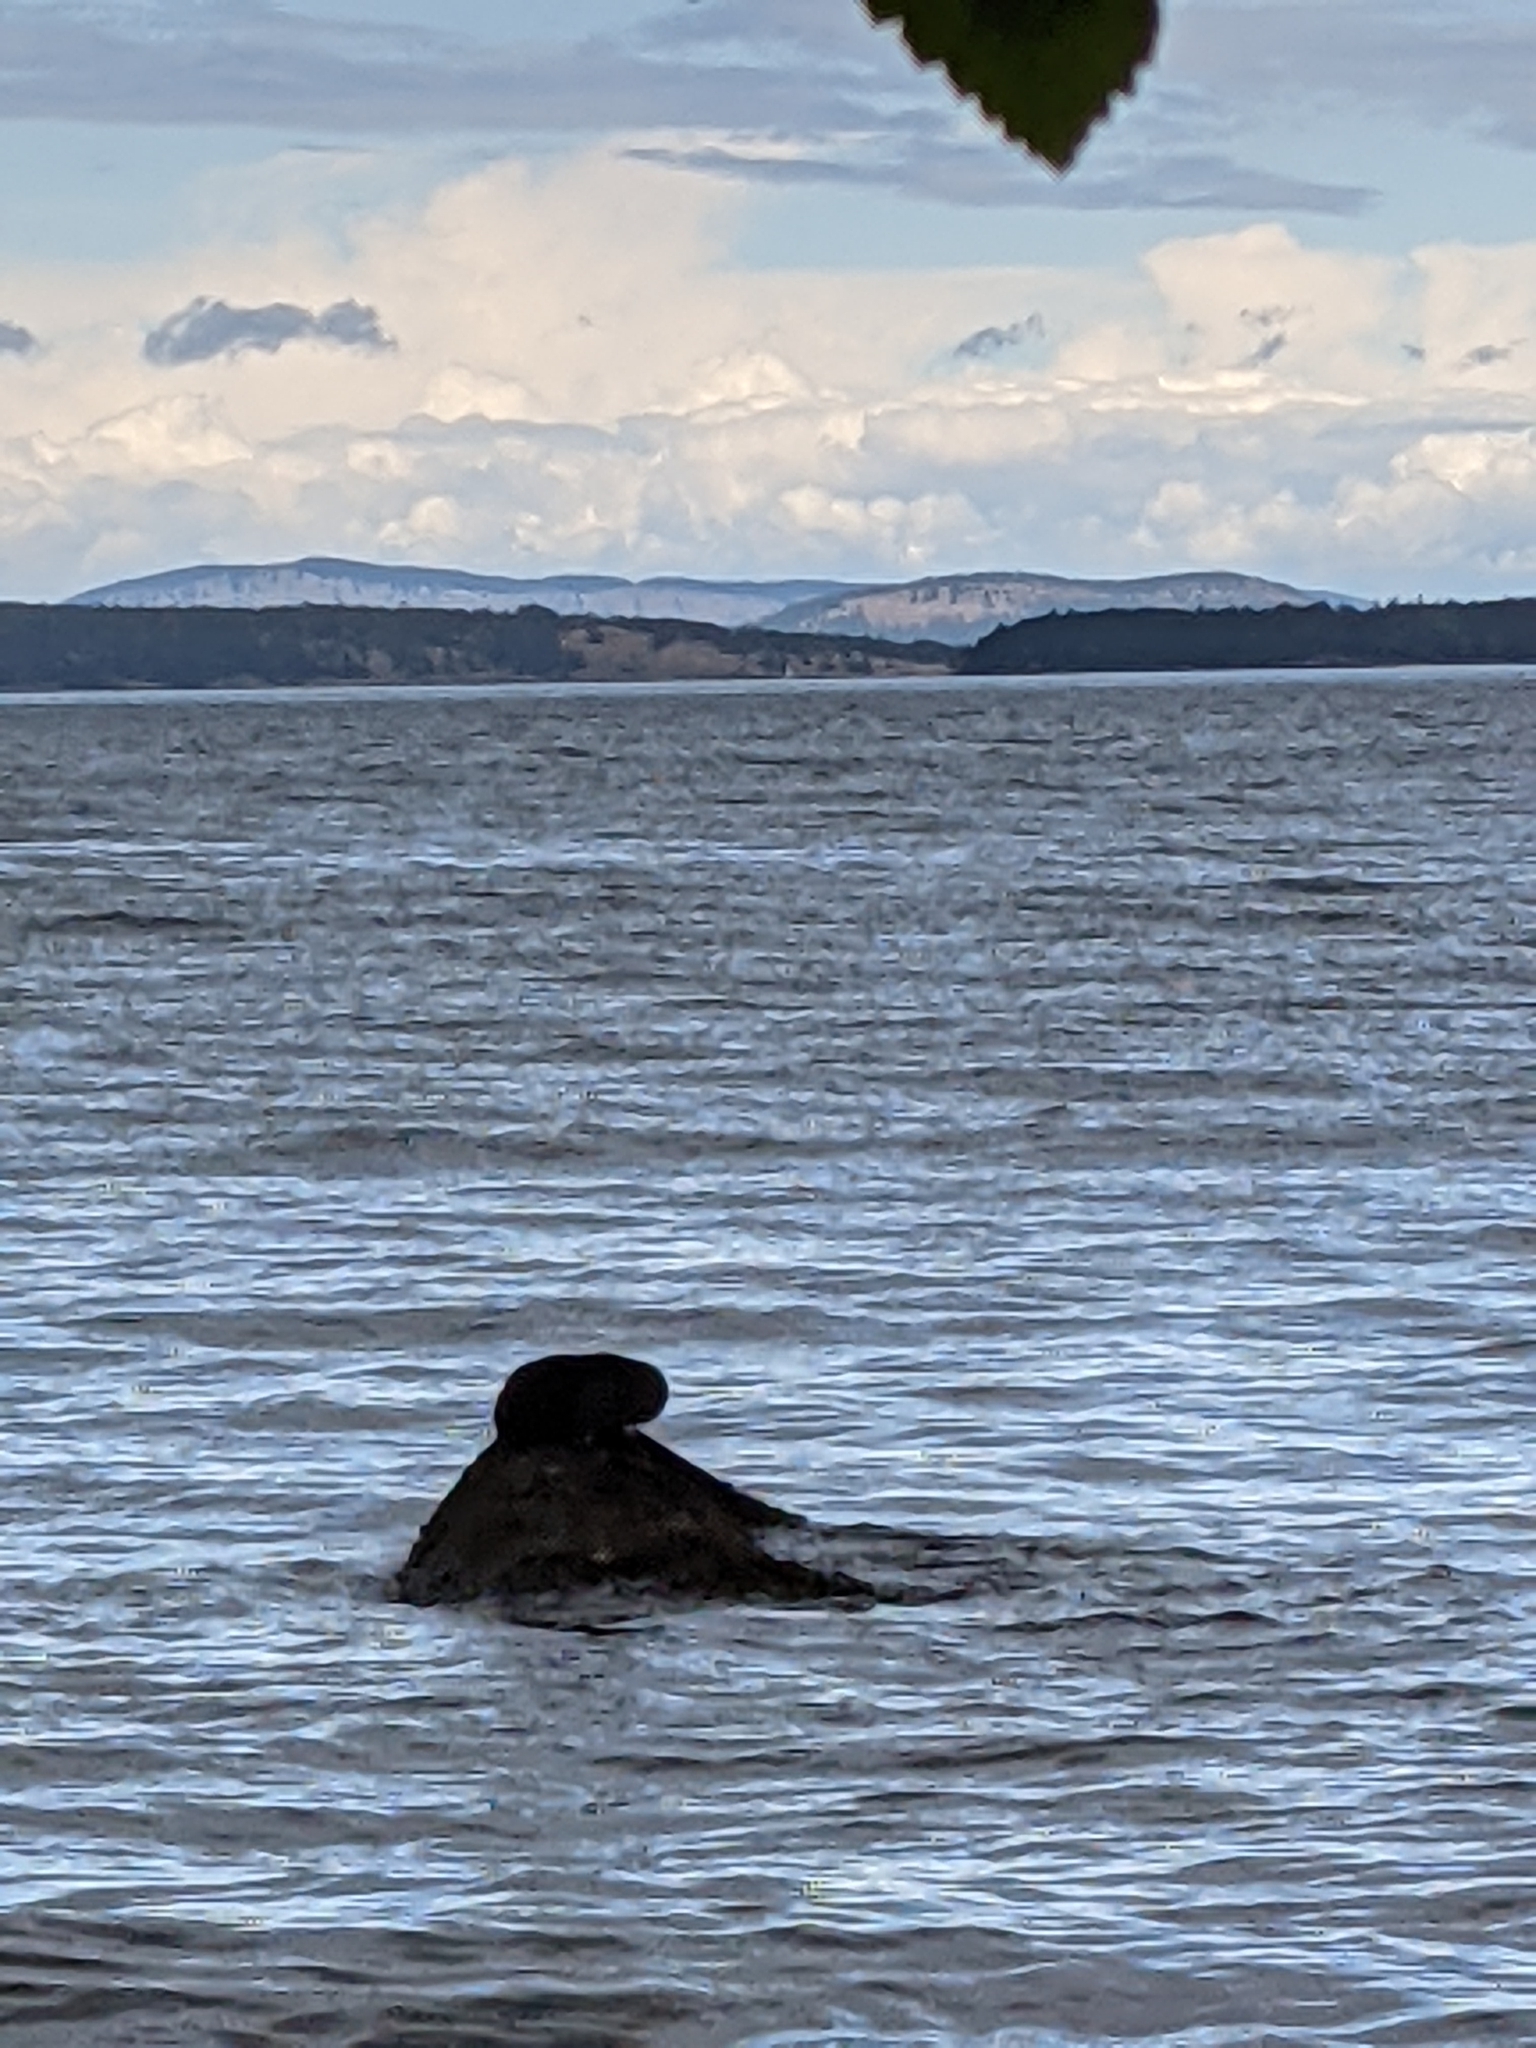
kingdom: Animalia
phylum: Chordata
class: Mammalia
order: Carnivora
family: Mustelidae
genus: Lontra
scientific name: Lontra canadensis
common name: North american river otter
